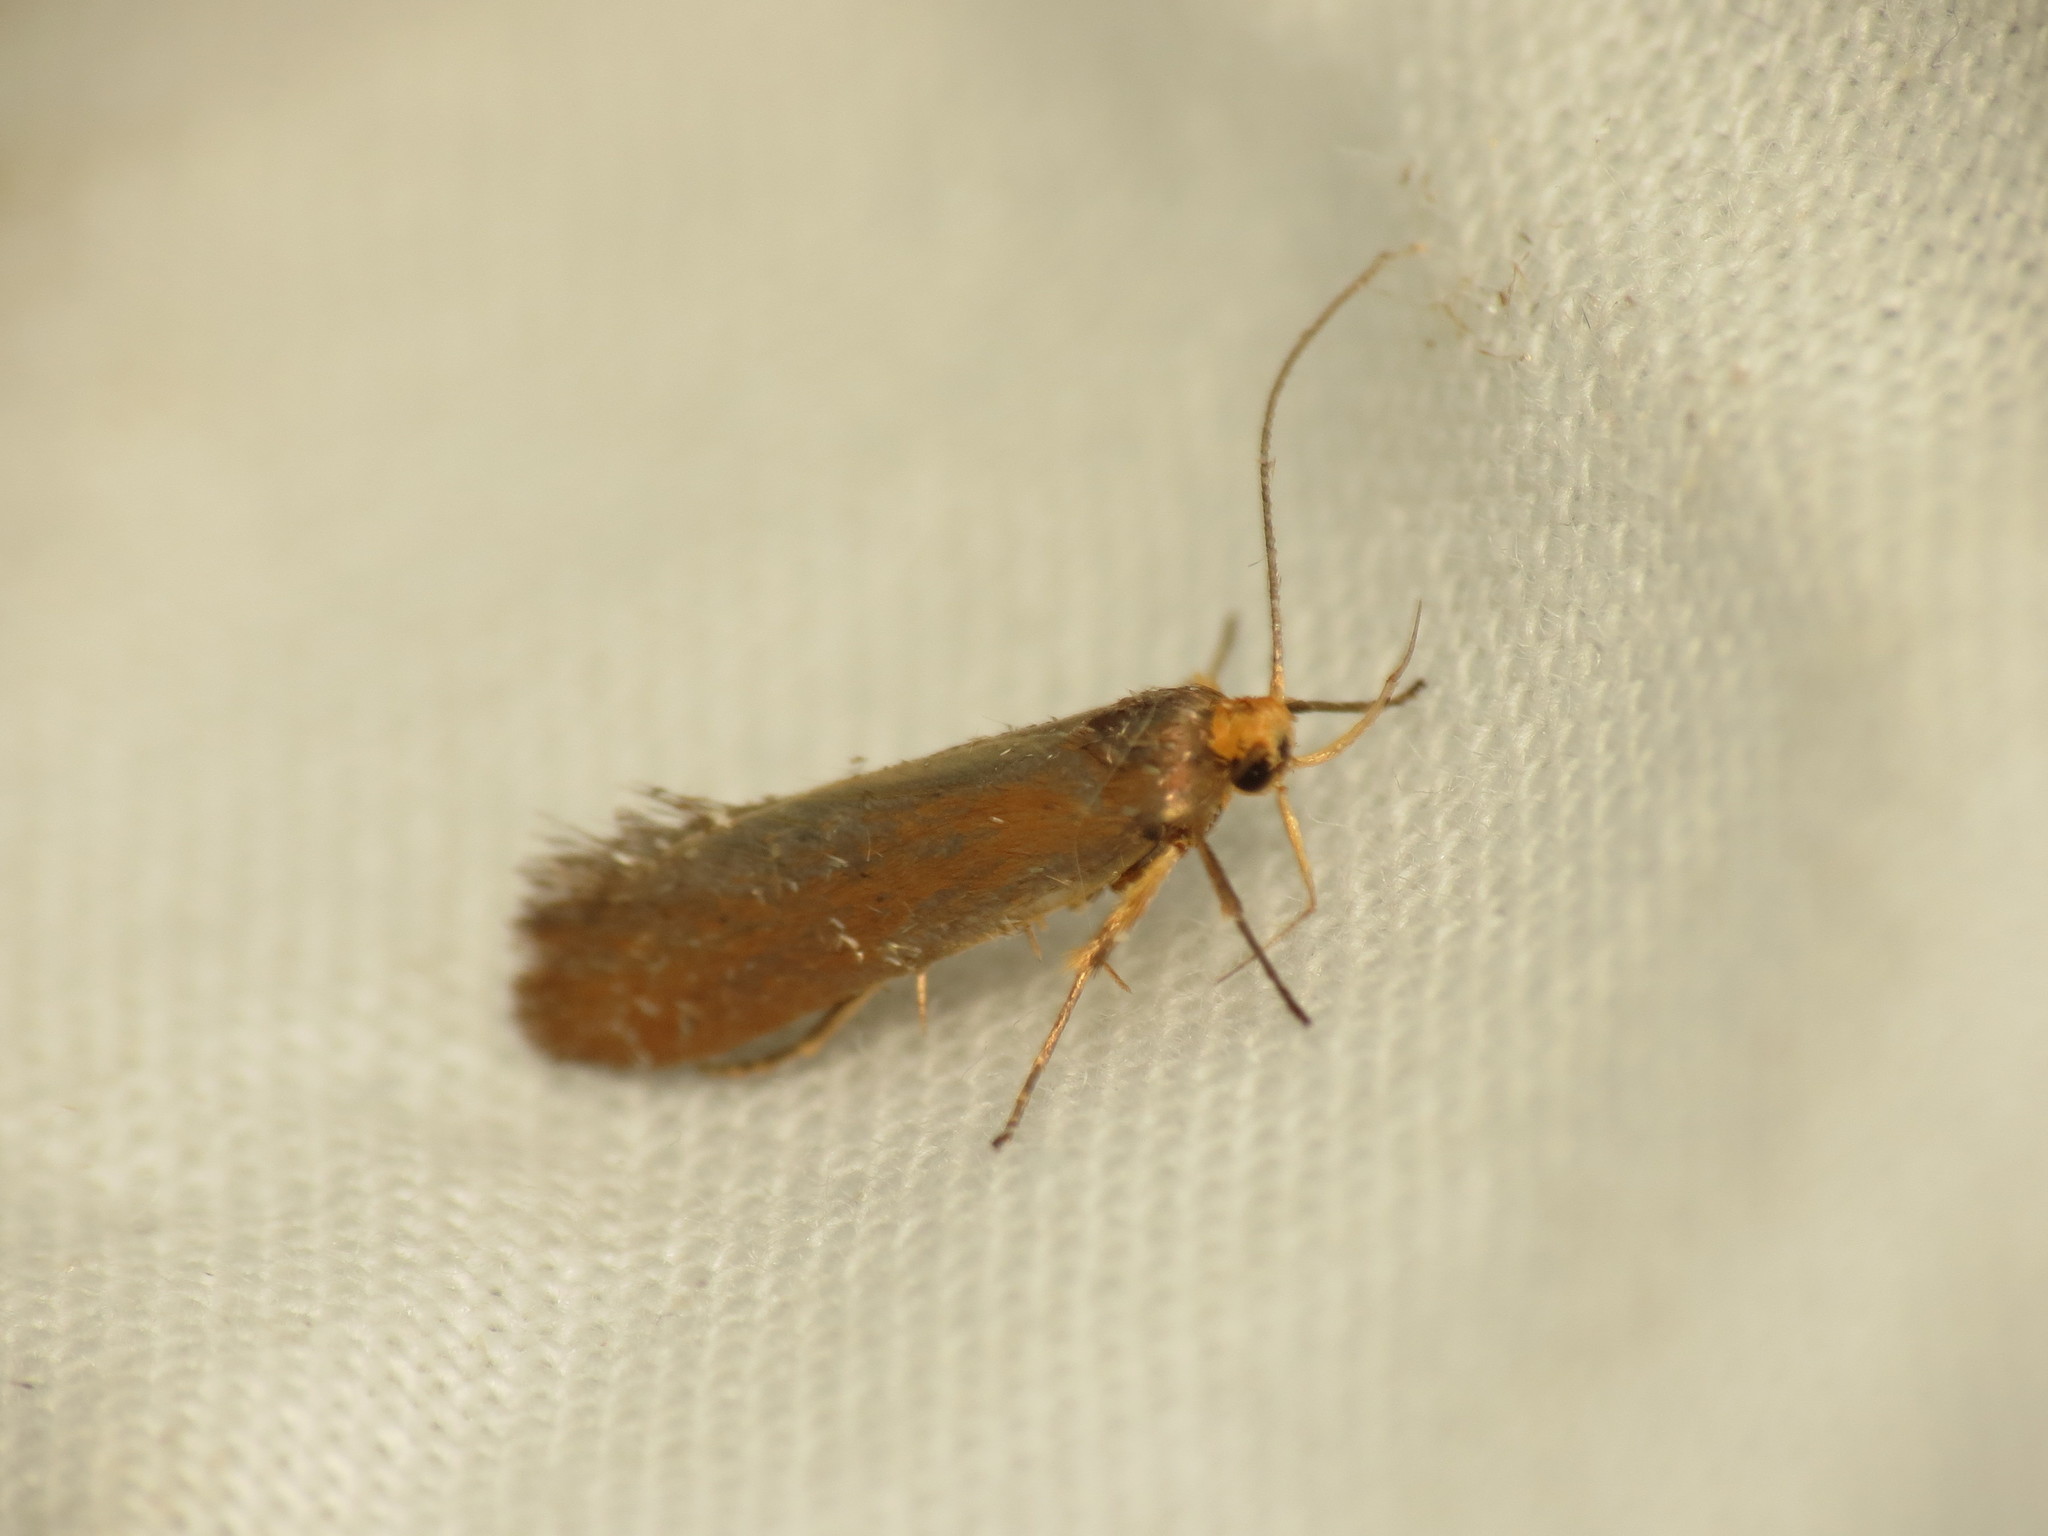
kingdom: Animalia
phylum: Arthropoda
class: Insecta
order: Lepidoptera
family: Oecophoridae
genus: Borkhausenia
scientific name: Borkhausenia Crassa unitella
